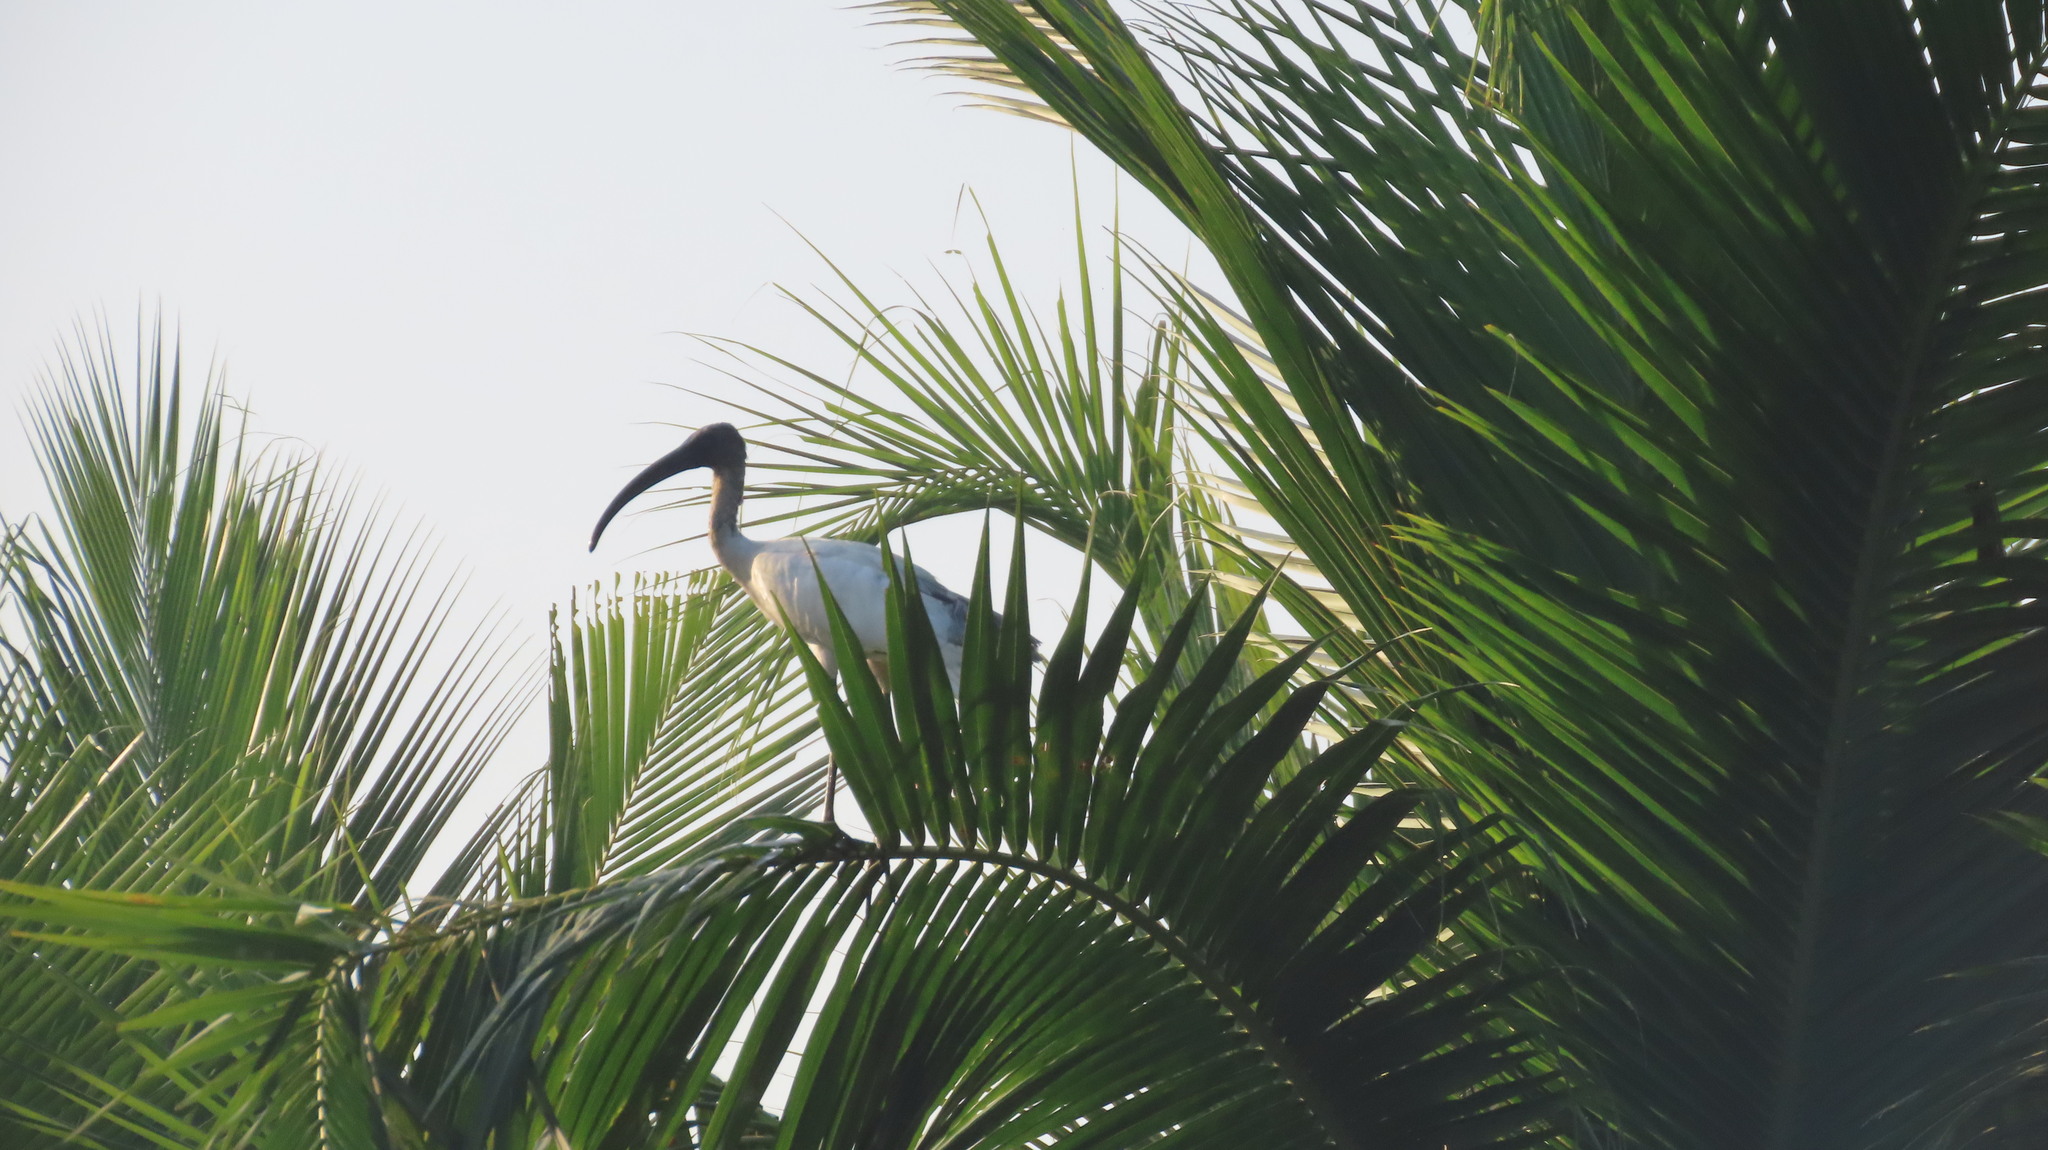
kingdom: Animalia
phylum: Chordata
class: Aves
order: Pelecaniformes
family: Threskiornithidae
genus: Threskiornis
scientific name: Threskiornis melanocephalus
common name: Black-headed ibis
